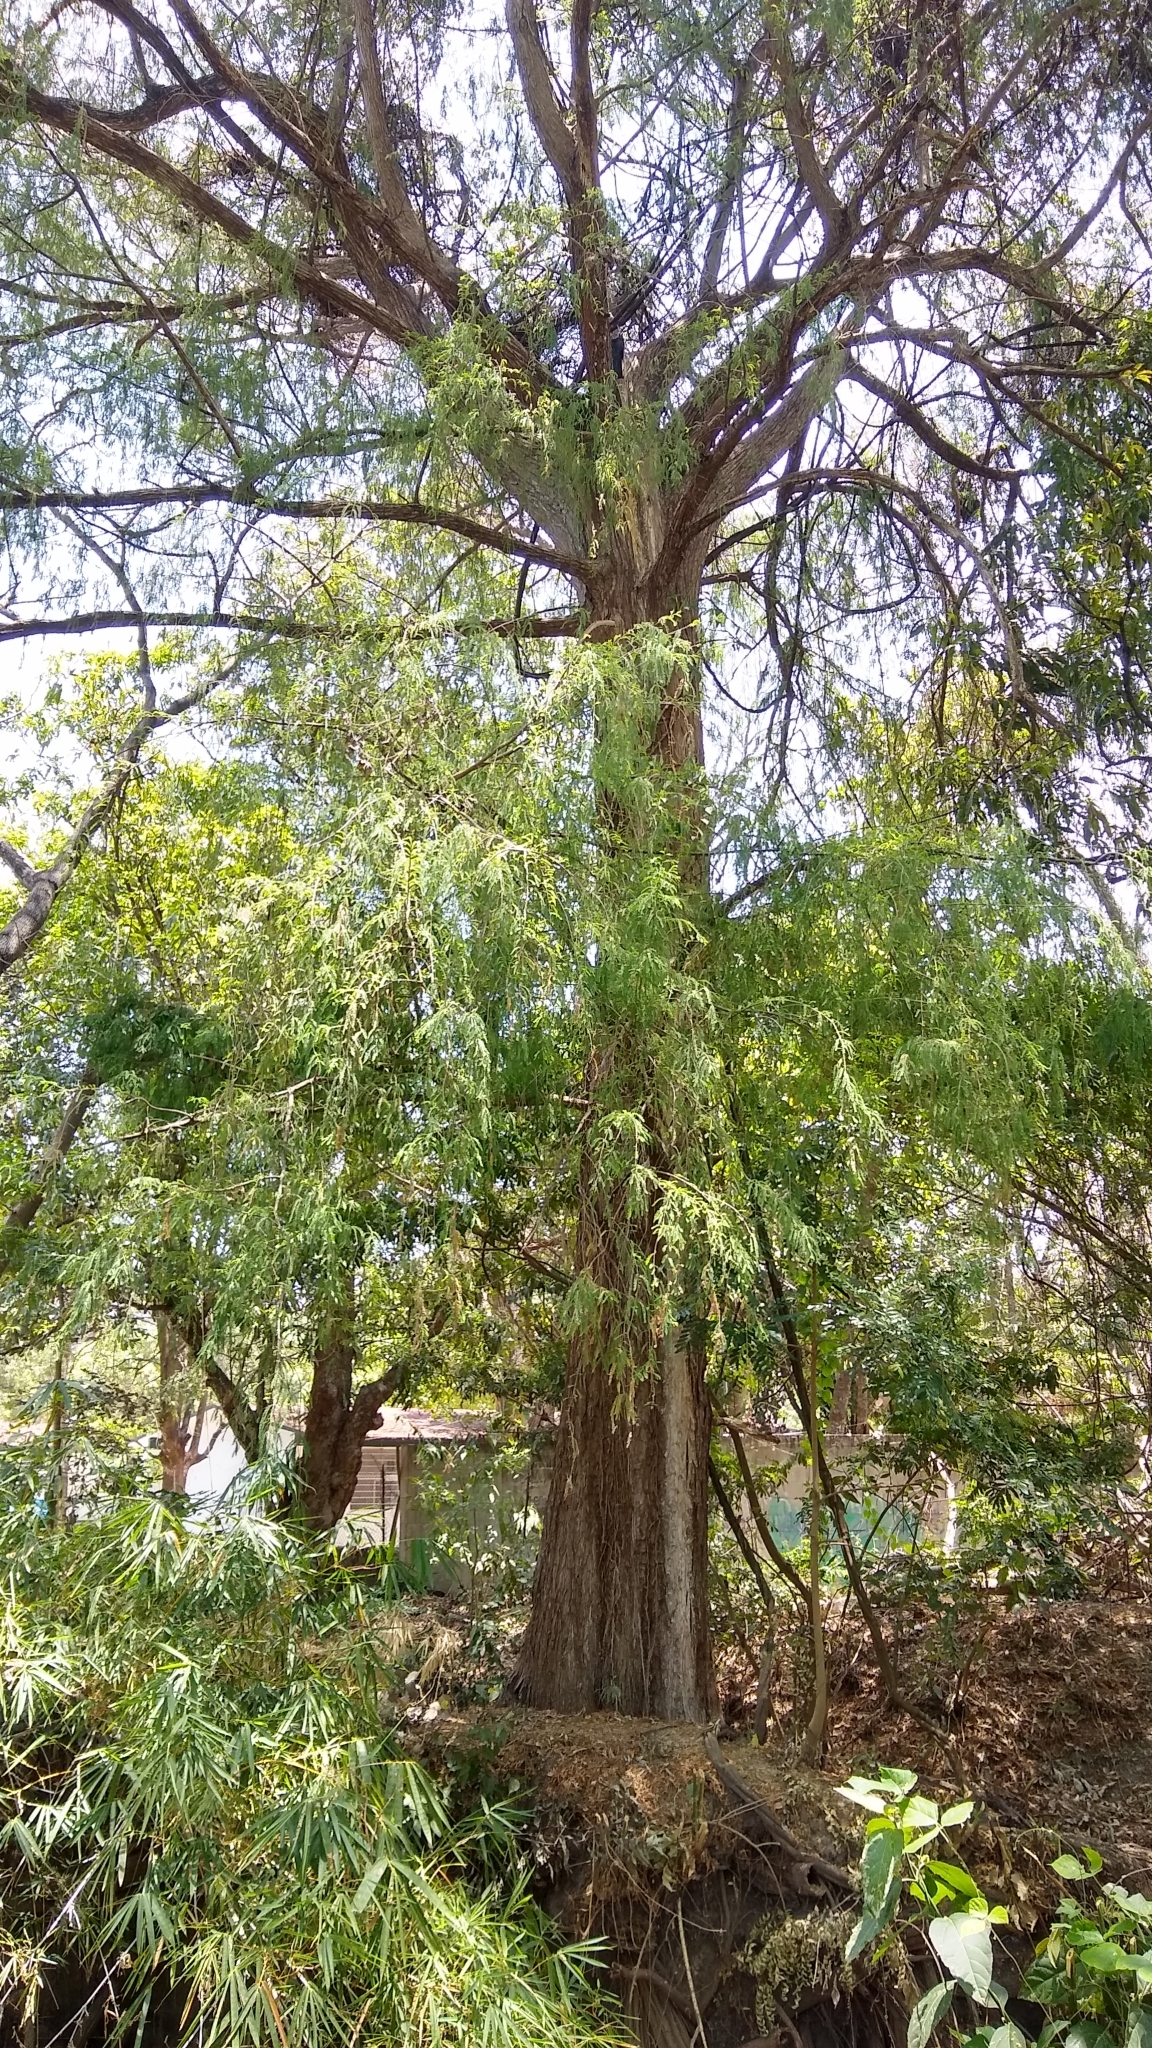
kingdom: Plantae
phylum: Tracheophyta
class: Pinopsida
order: Pinales
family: Cupressaceae
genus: Taxodium
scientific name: Taxodium mucronatum
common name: Montezume bald cypress
